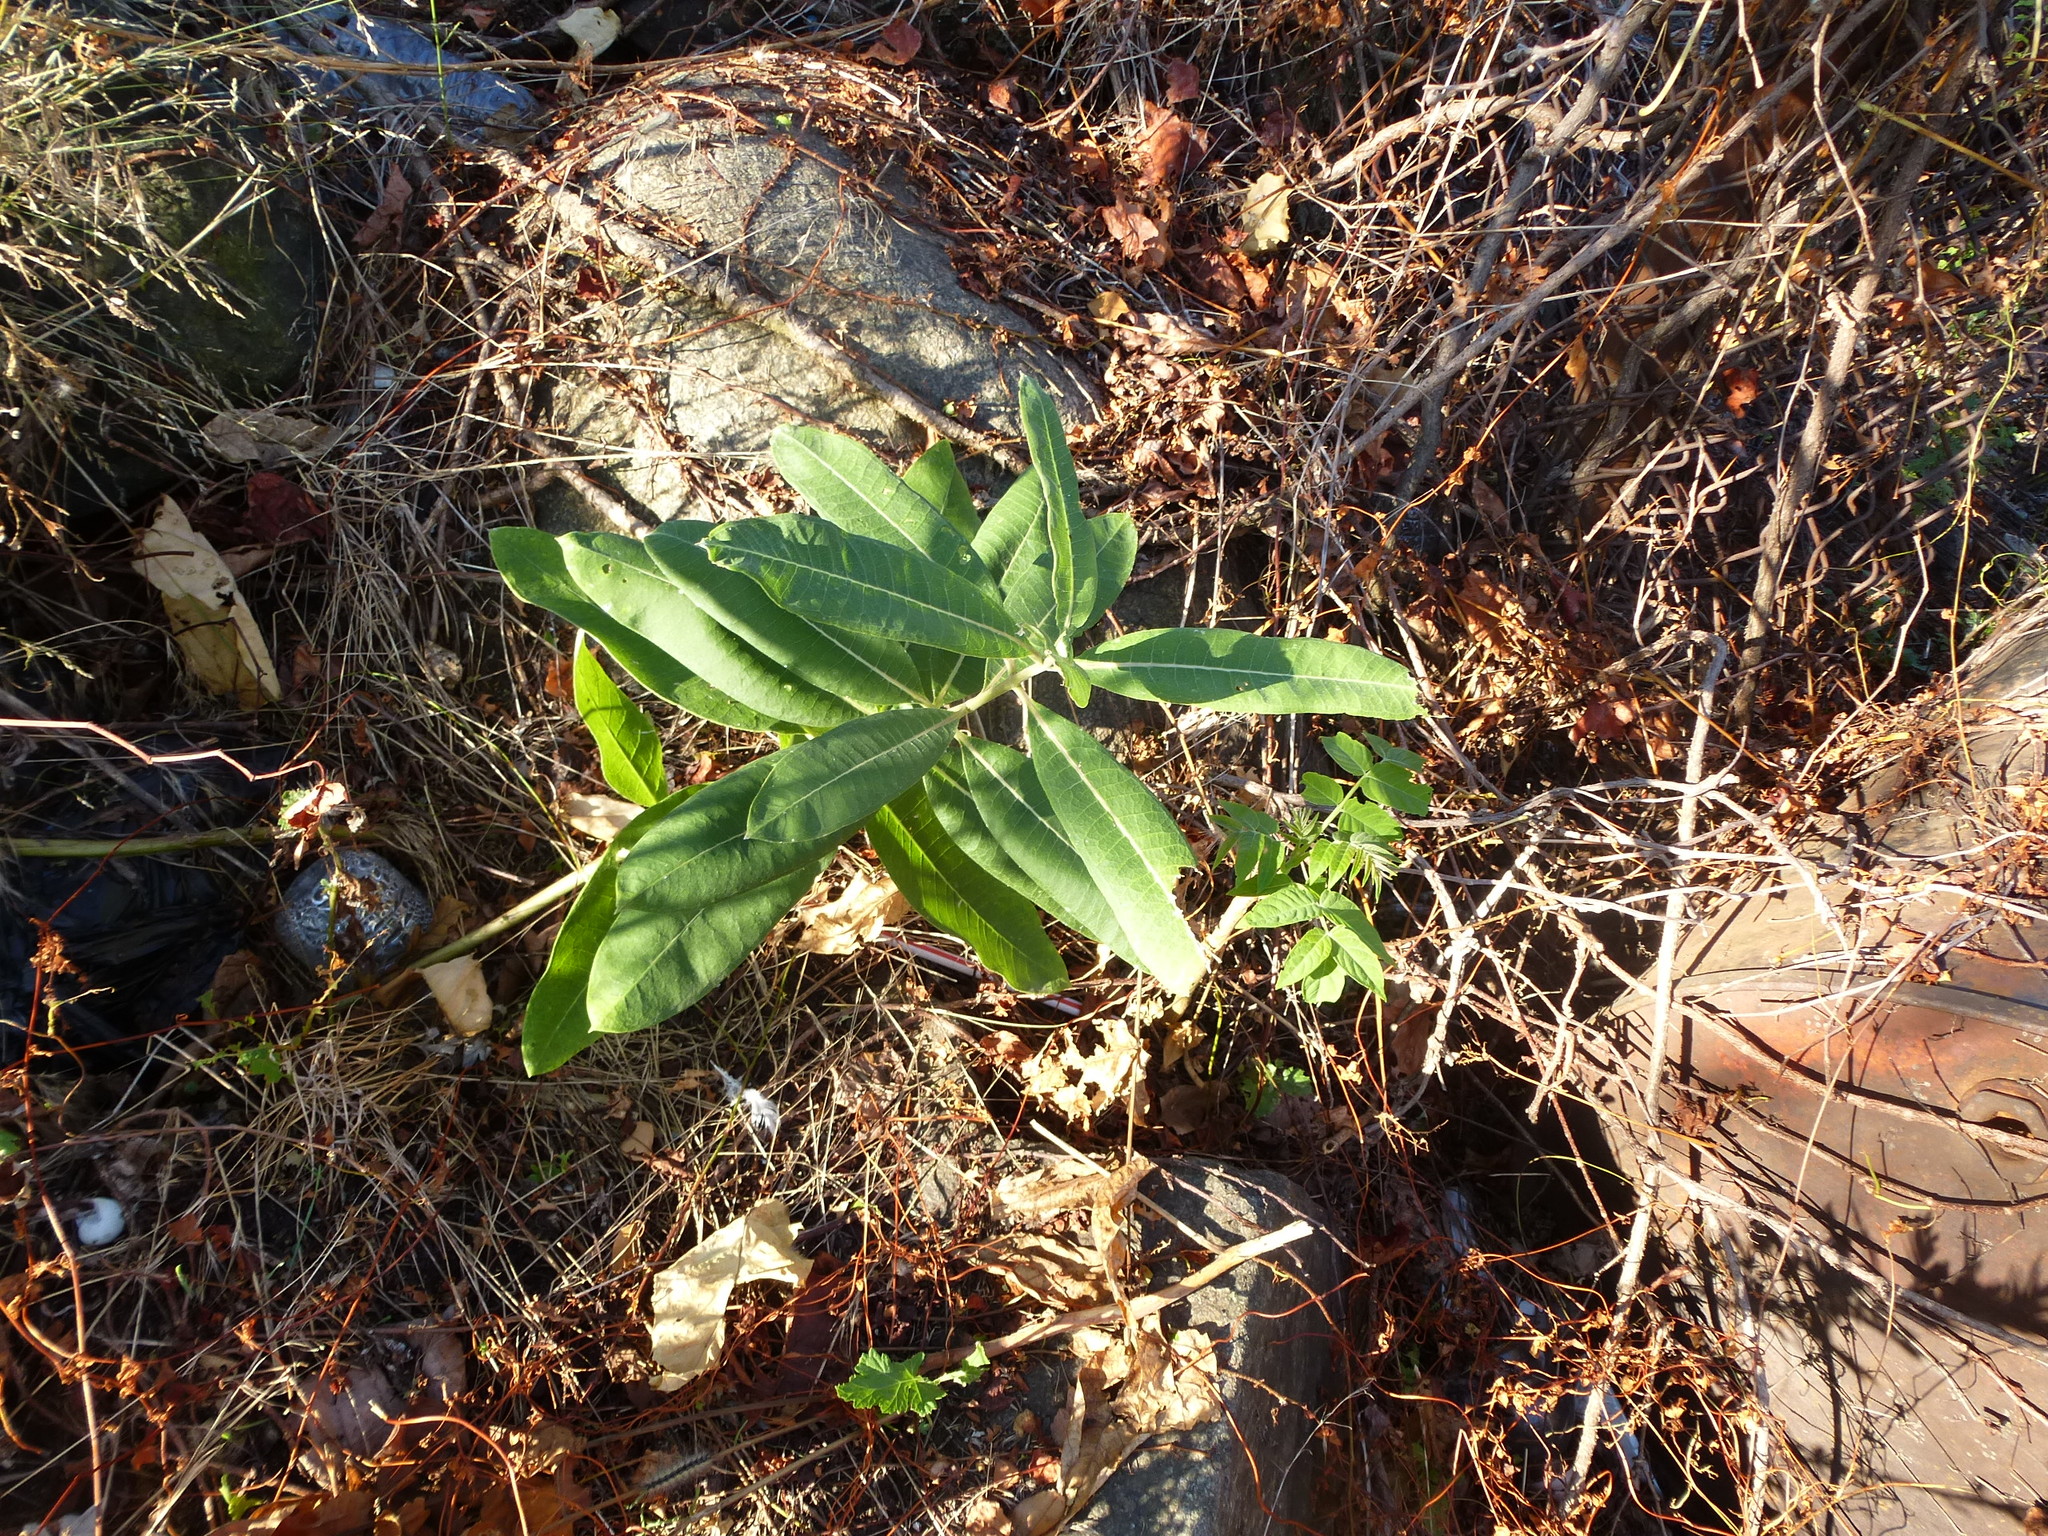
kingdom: Plantae
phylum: Tracheophyta
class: Magnoliopsida
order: Gentianales
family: Apocynaceae
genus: Asclepias
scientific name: Asclepias syriaca
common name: Common milkweed
